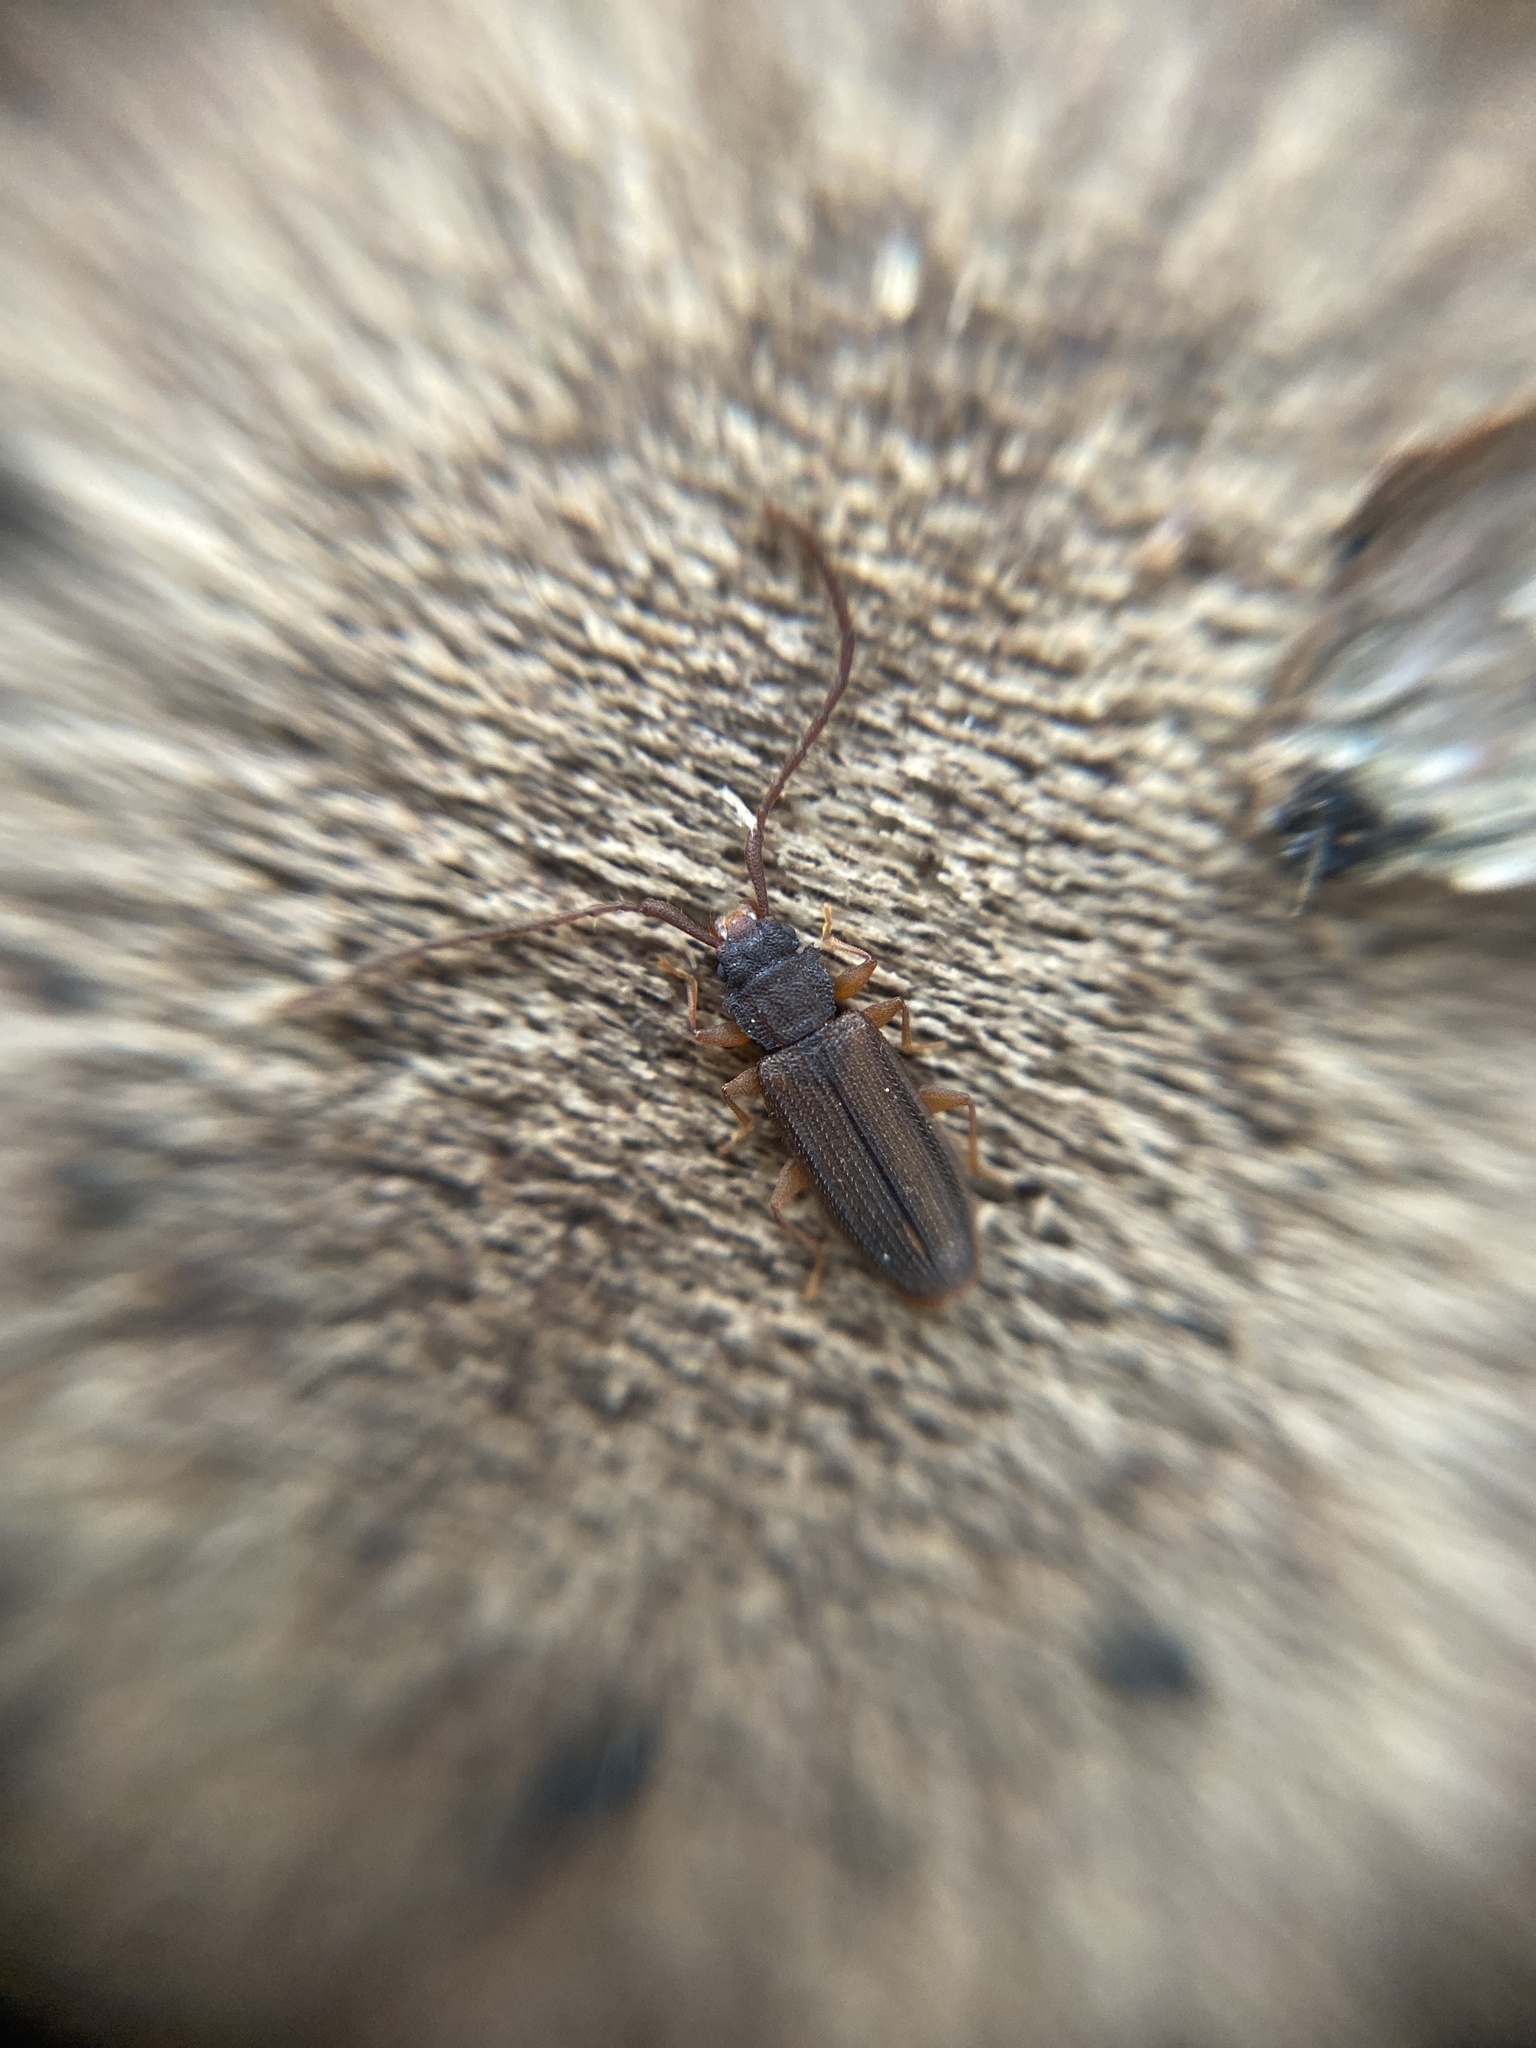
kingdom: Animalia
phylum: Arthropoda
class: Insecta
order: Coleoptera
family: Silvanidae
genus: Uleiota
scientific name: Uleiota planatus
